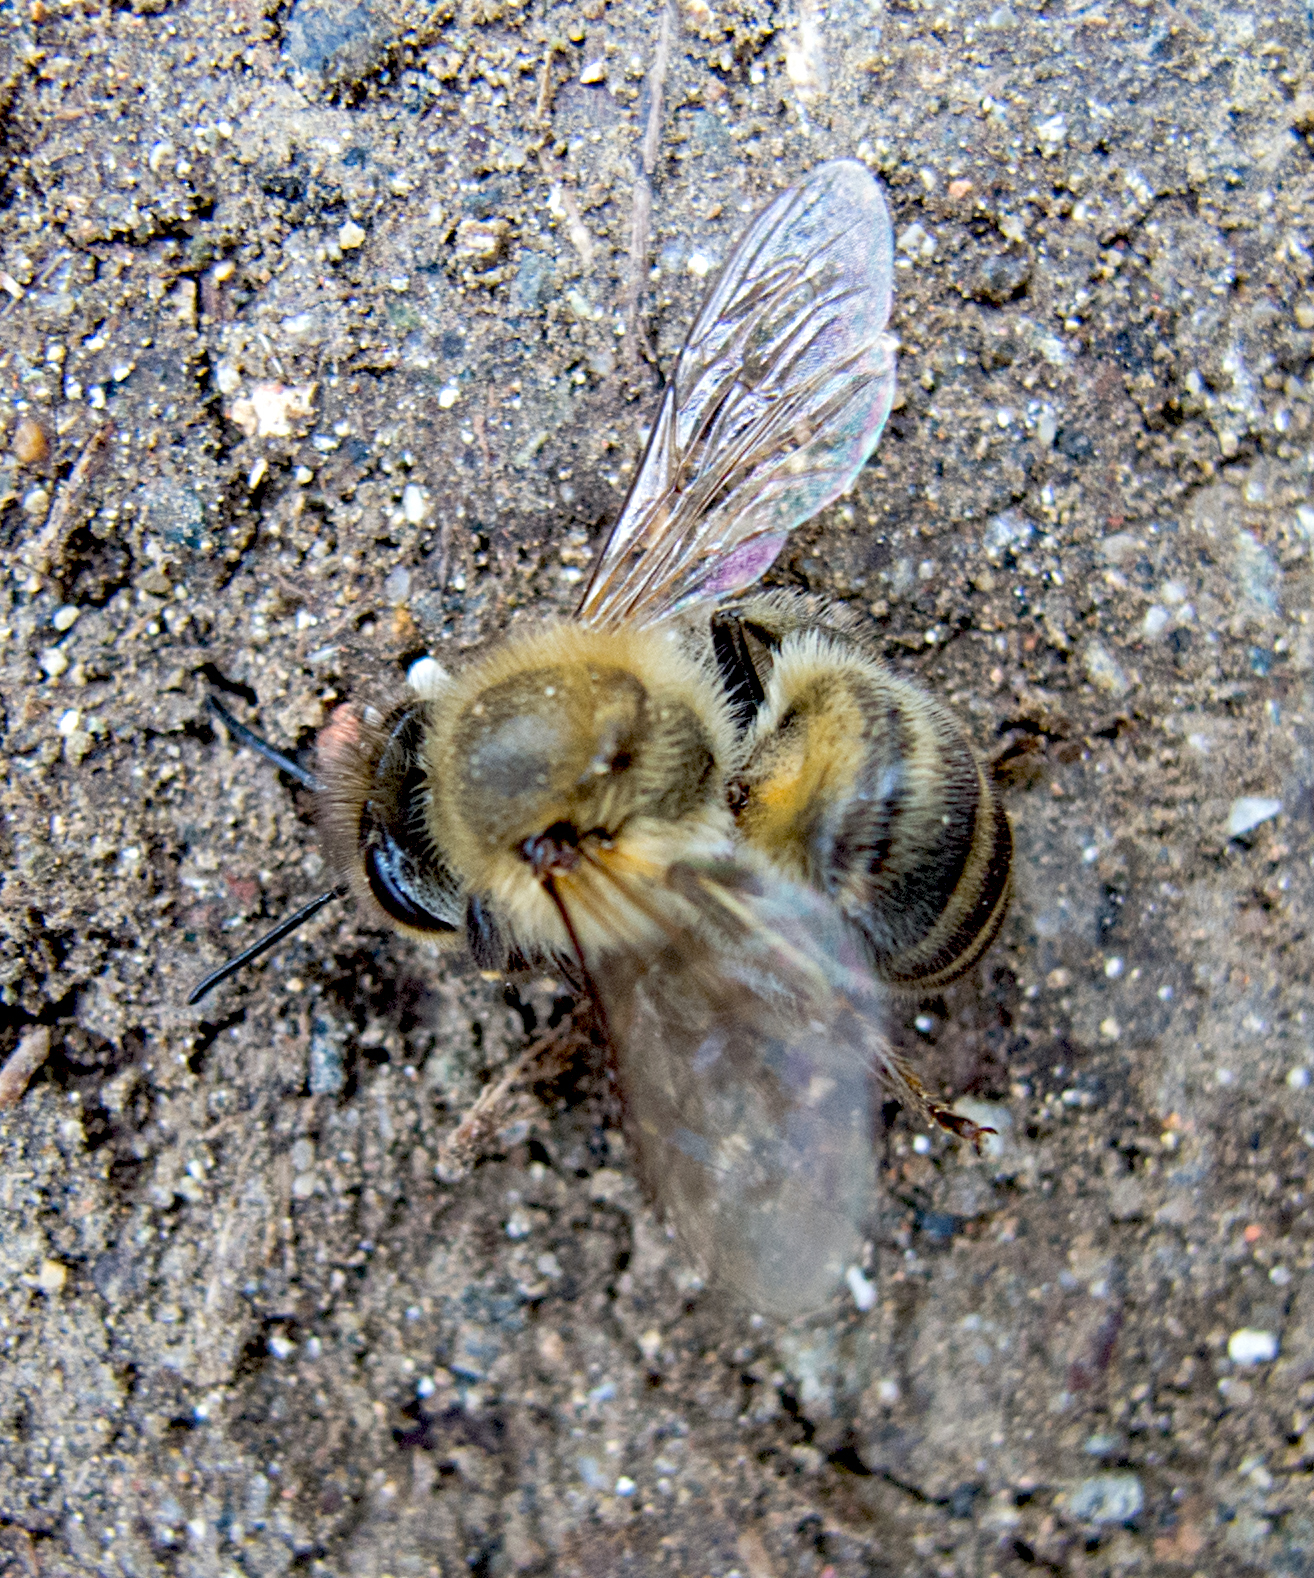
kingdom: Animalia
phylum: Arthropoda
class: Insecta
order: Hymenoptera
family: Apidae
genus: Apis
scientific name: Apis mellifera
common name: Honey bee
